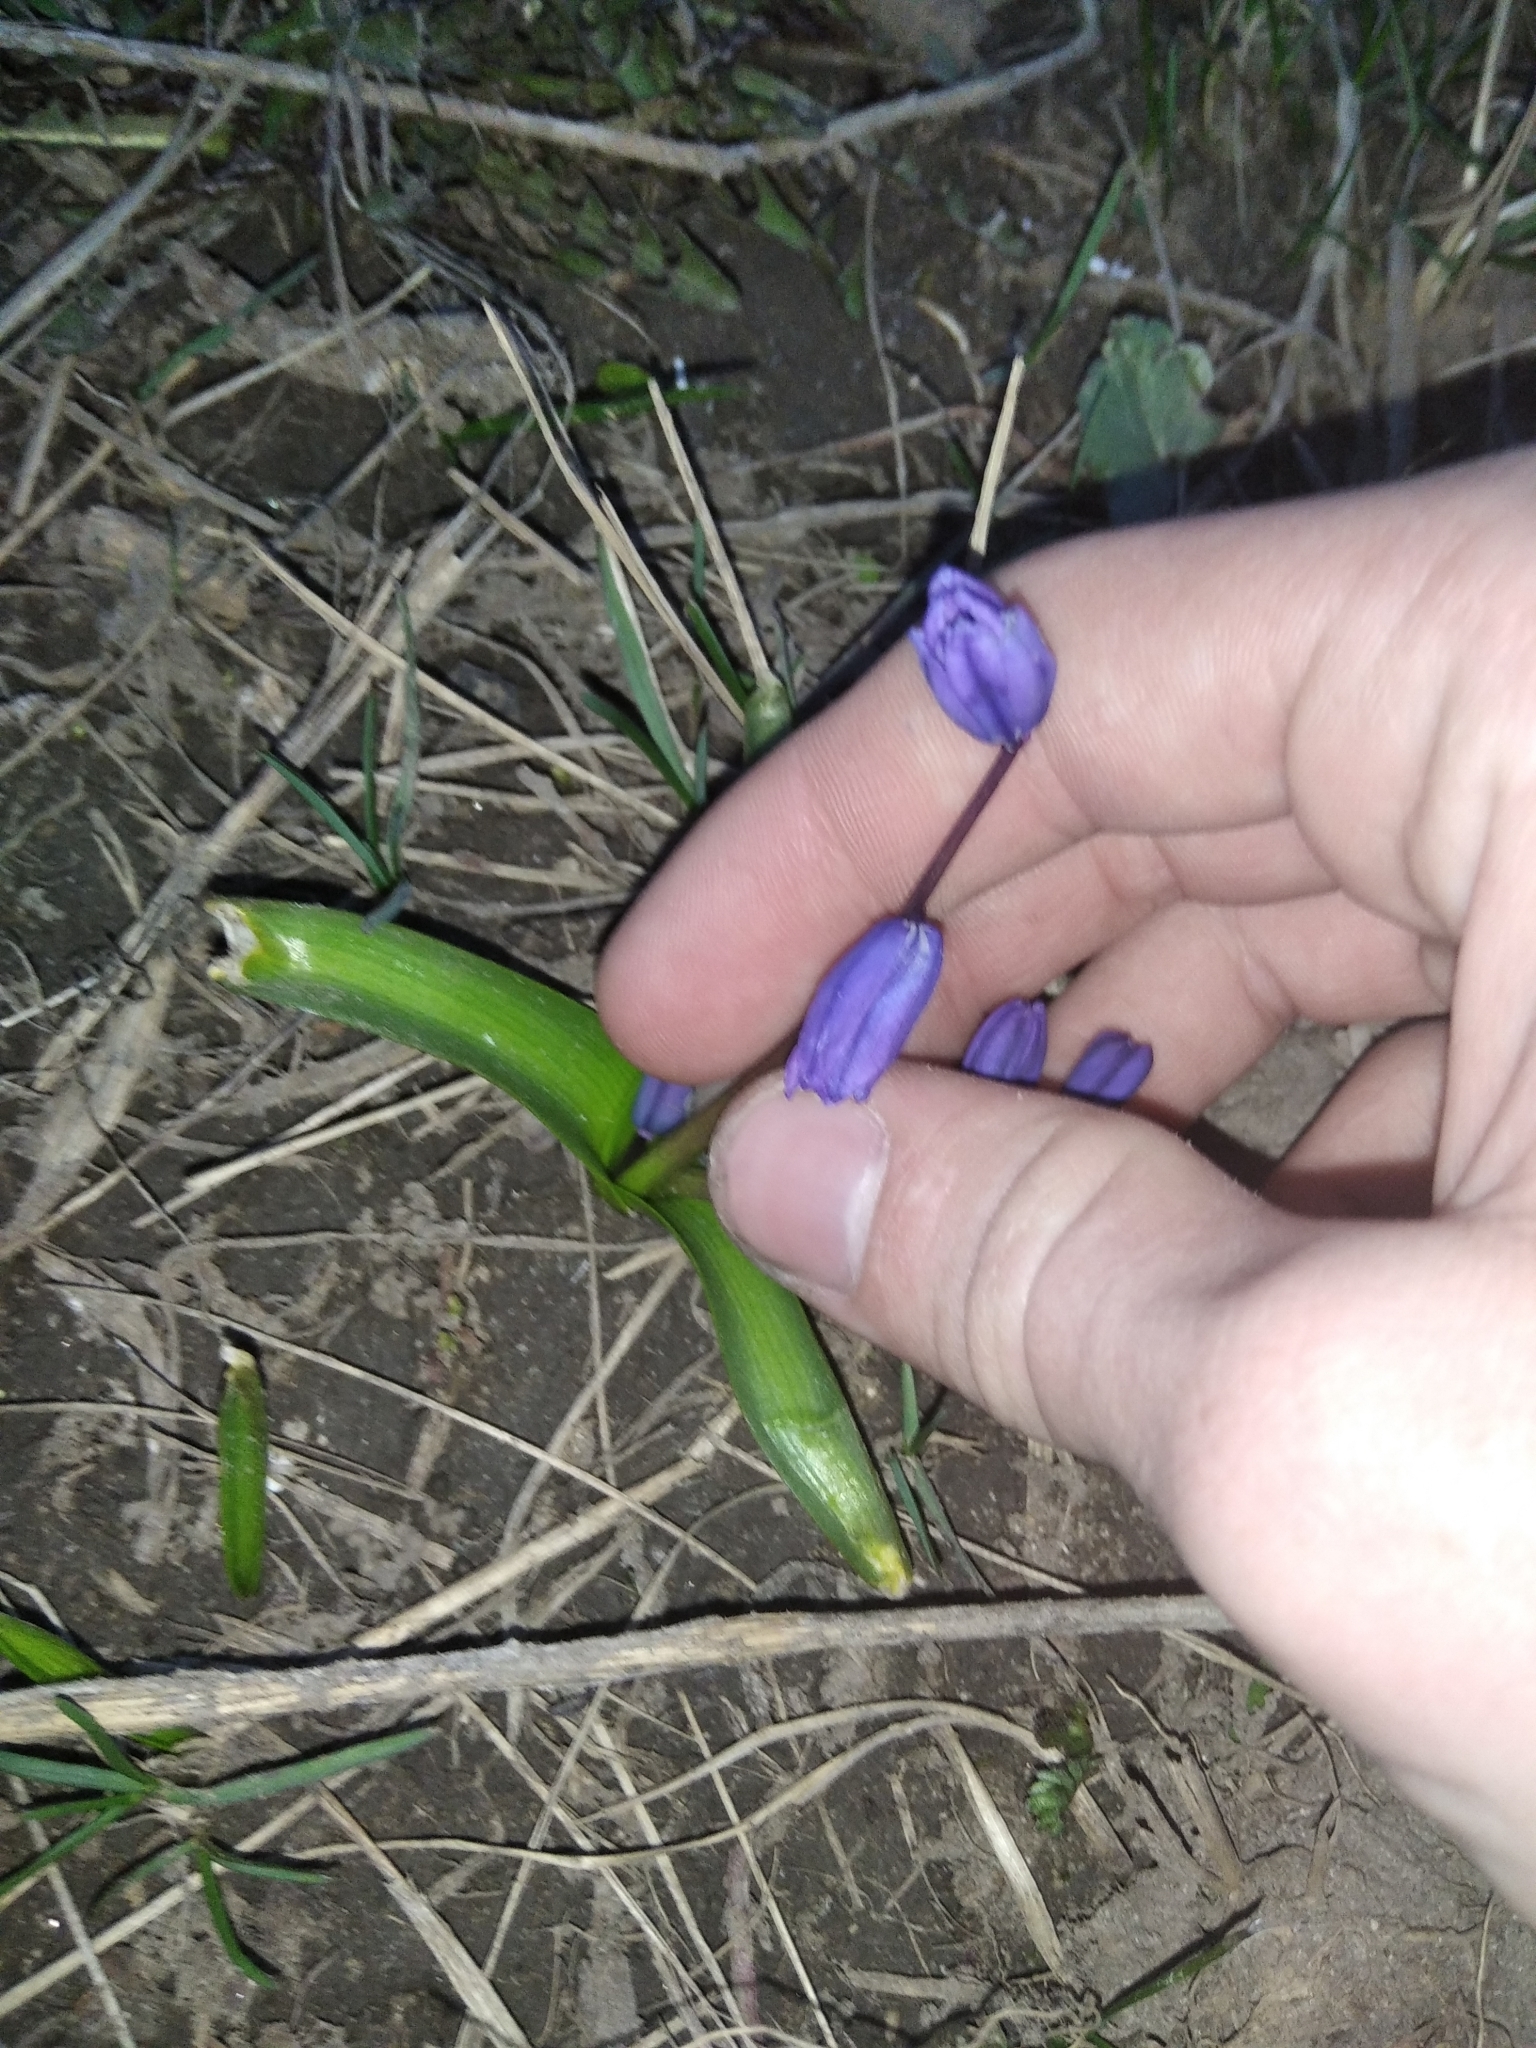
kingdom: Plantae
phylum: Tracheophyta
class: Liliopsida
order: Asparagales
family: Asparagaceae
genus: Scilla
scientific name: Scilla siberica
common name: Siberian squill
